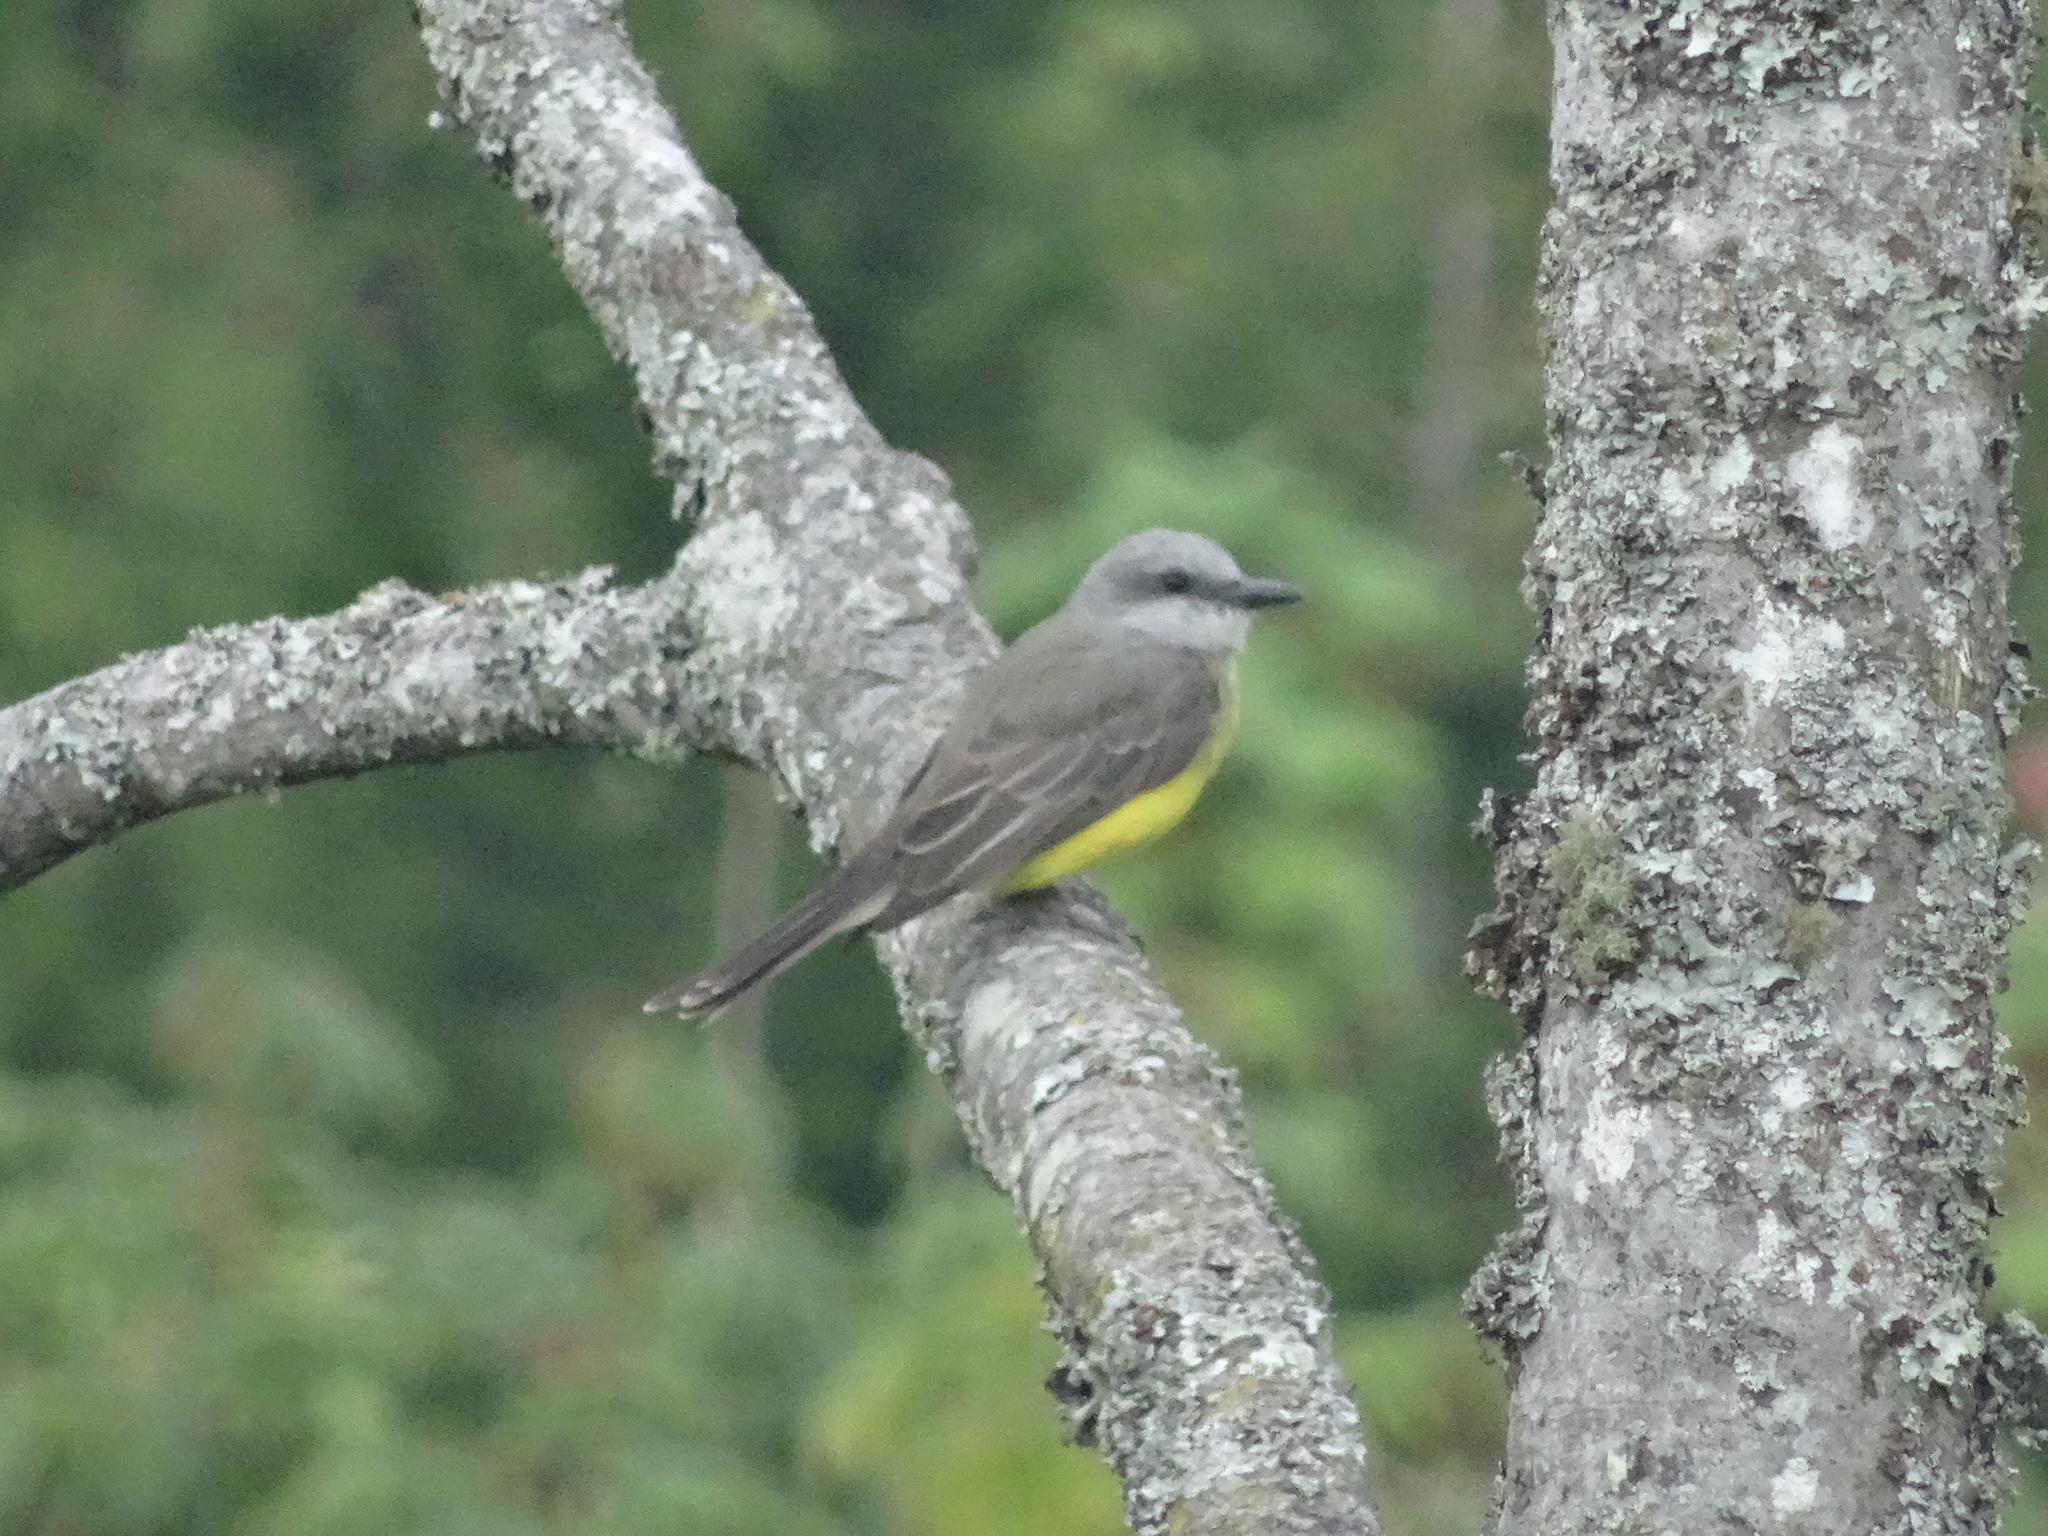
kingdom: Animalia
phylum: Chordata
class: Aves
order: Passeriformes
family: Tyrannidae
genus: Tyrannus
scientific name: Tyrannus melancholicus
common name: Tropical kingbird
